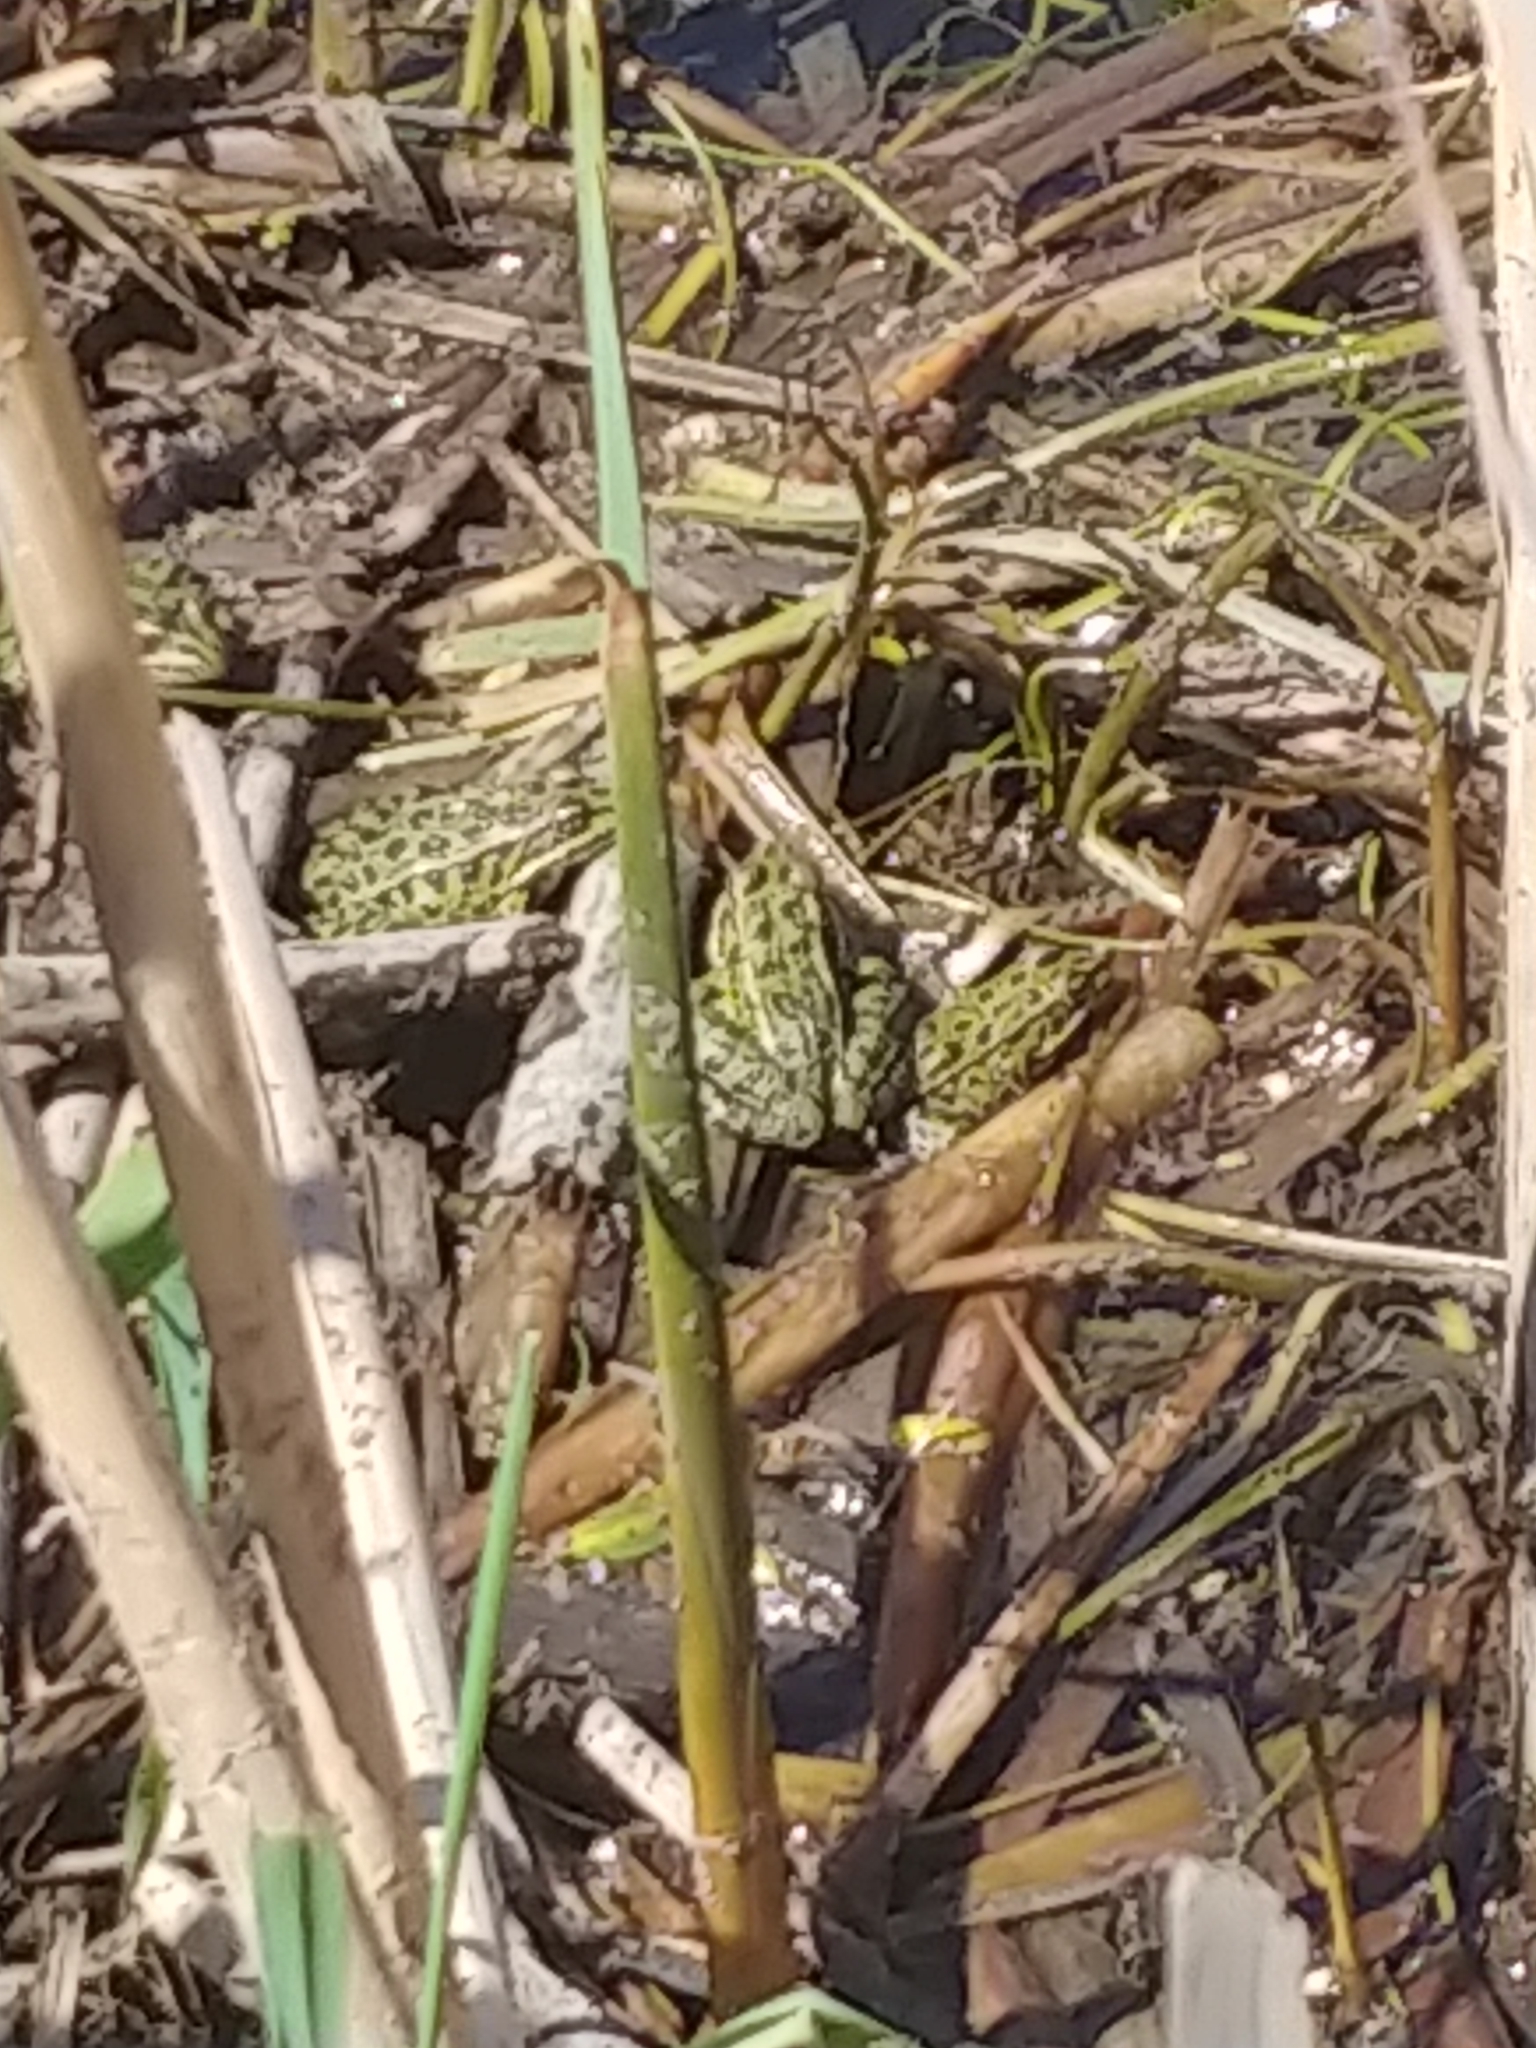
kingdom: Animalia
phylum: Chordata
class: Amphibia
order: Anura
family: Ranidae
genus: Lithobates
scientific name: Lithobates pipiens
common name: Northern leopard frog
